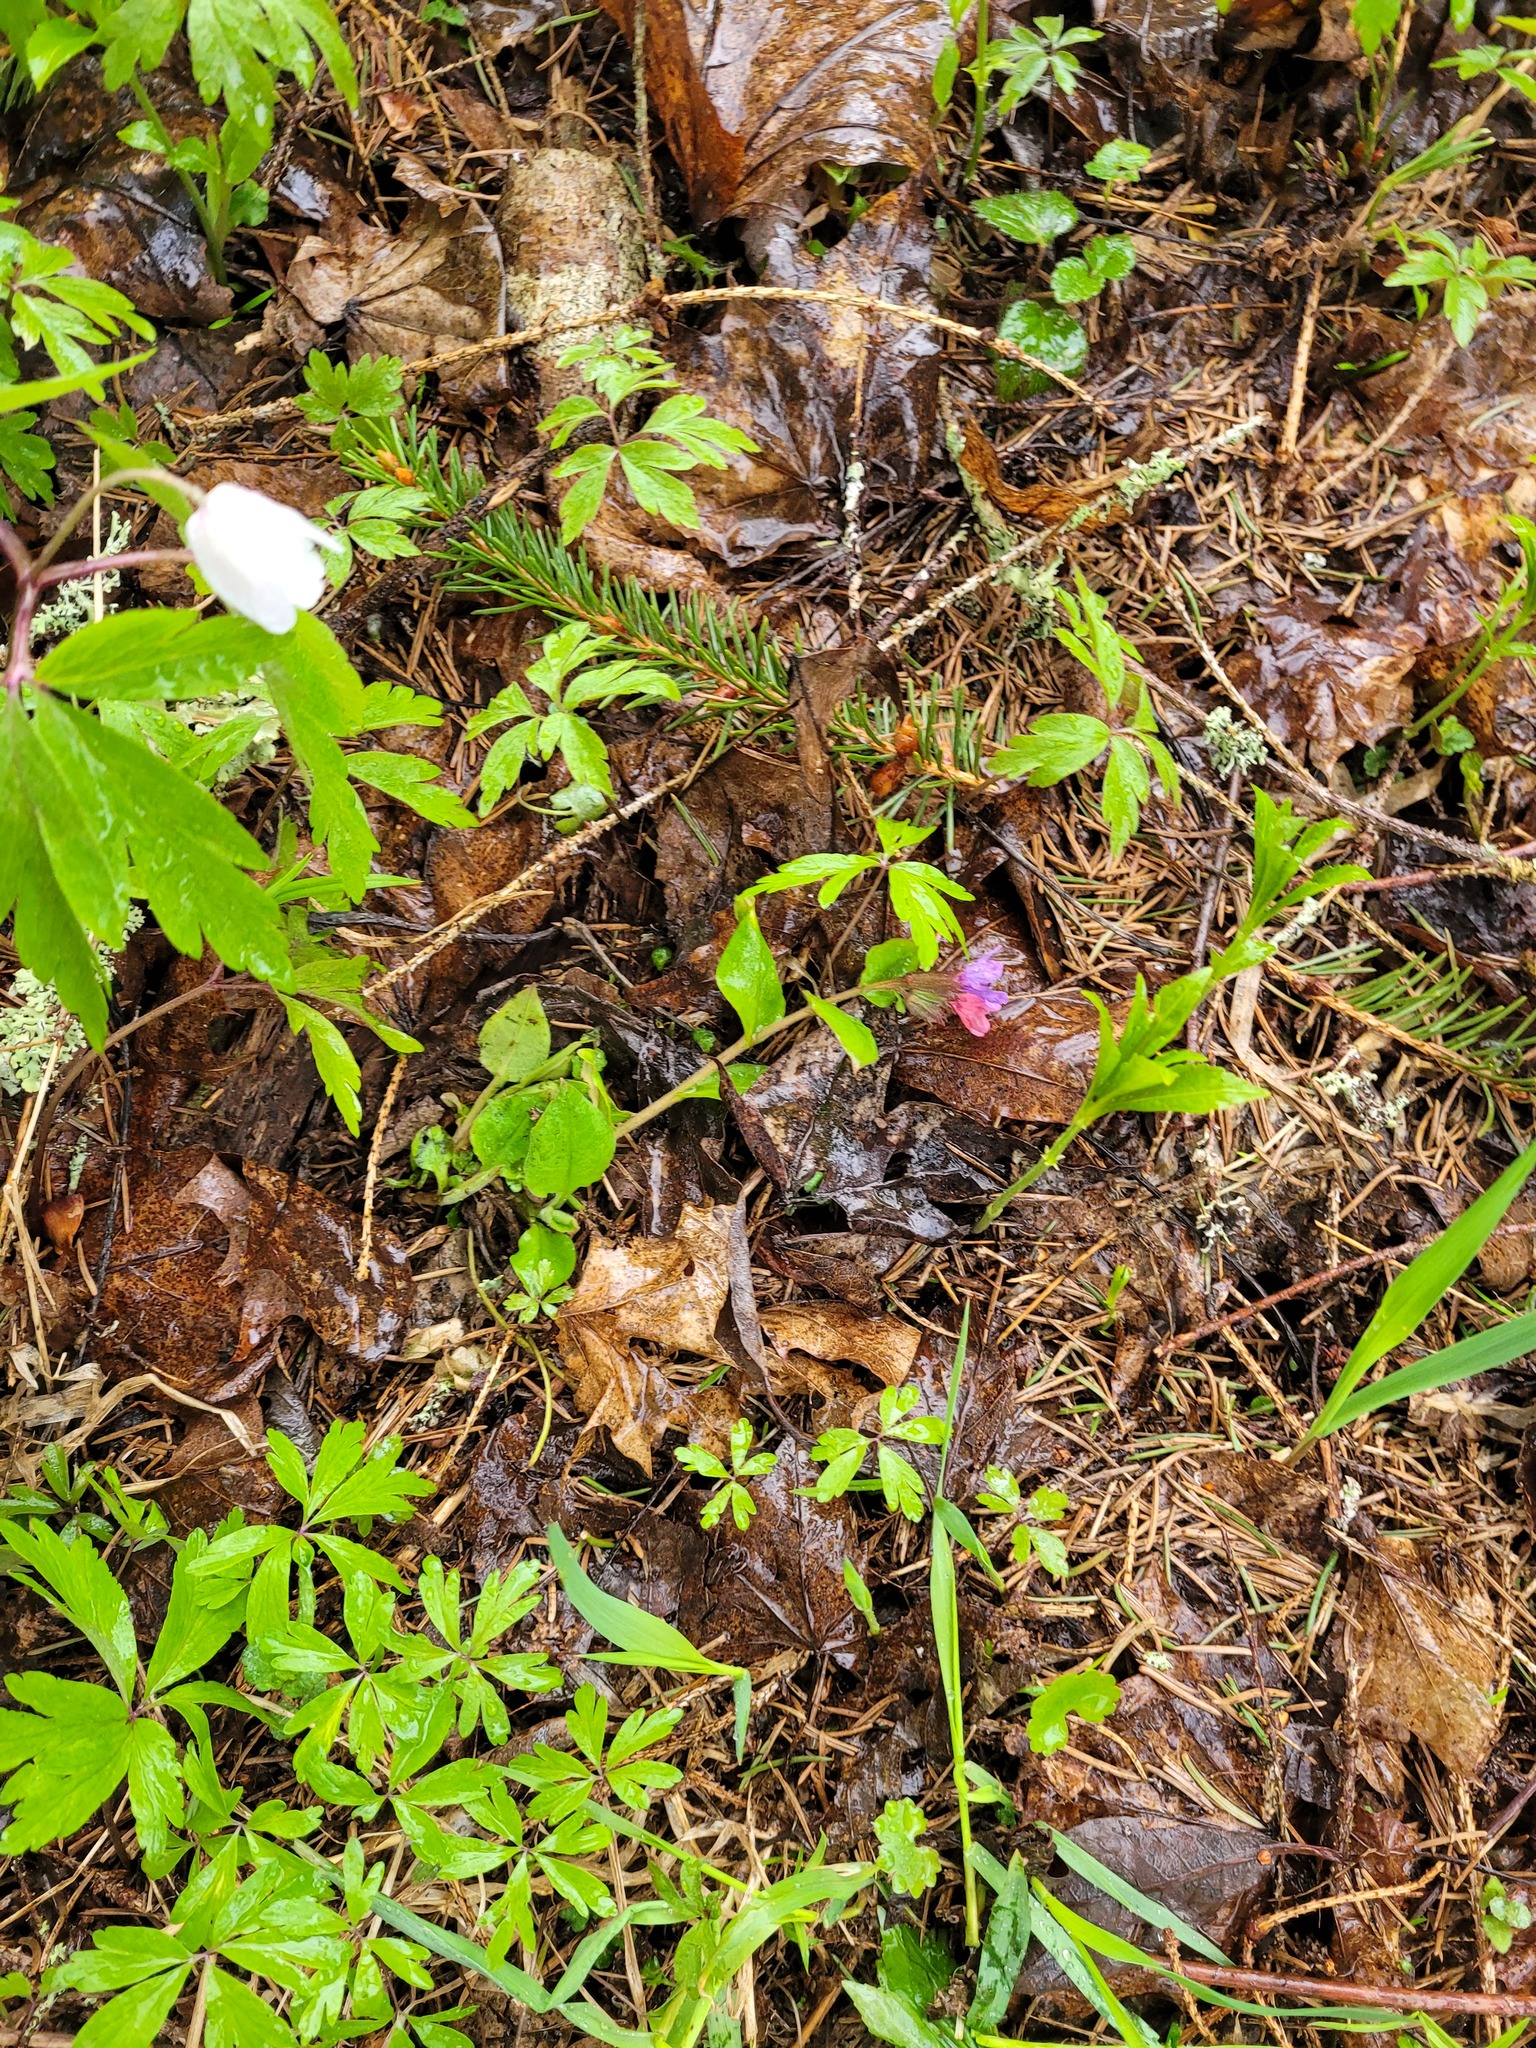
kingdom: Plantae
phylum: Tracheophyta
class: Magnoliopsida
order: Boraginales
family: Boraginaceae
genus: Pulmonaria
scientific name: Pulmonaria obscura
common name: Suffolk lungwort
